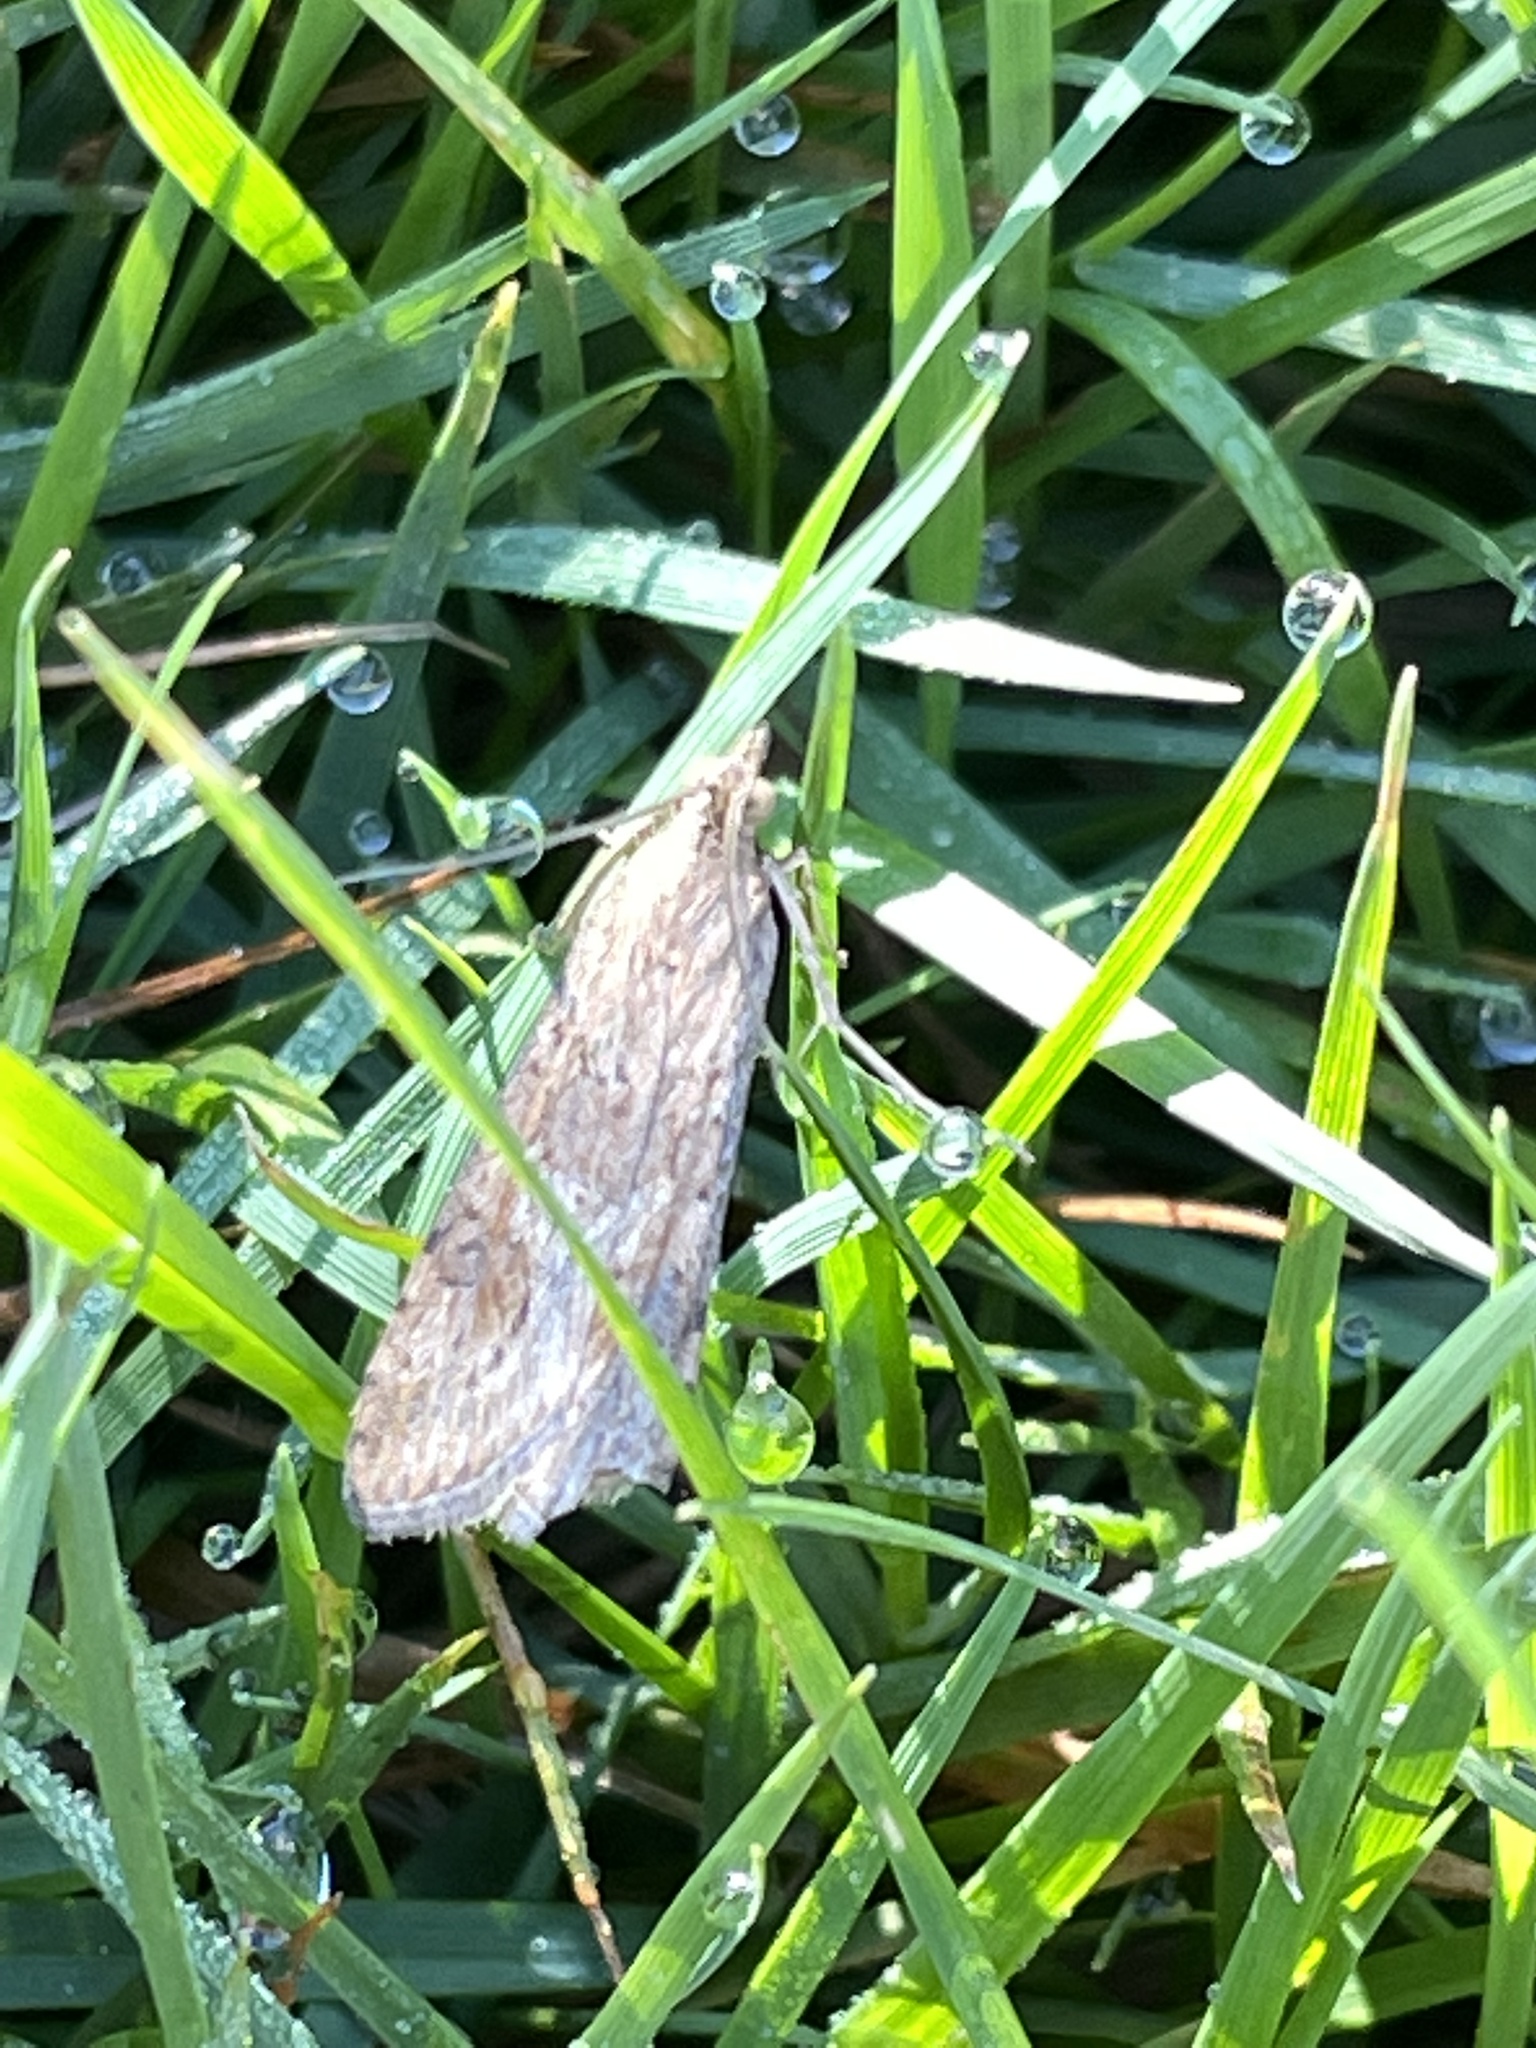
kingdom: Animalia
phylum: Arthropoda
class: Insecta
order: Lepidoptera
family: Crambidae
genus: Nomophila
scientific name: Nomophila nearctica
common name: American rush veneer
